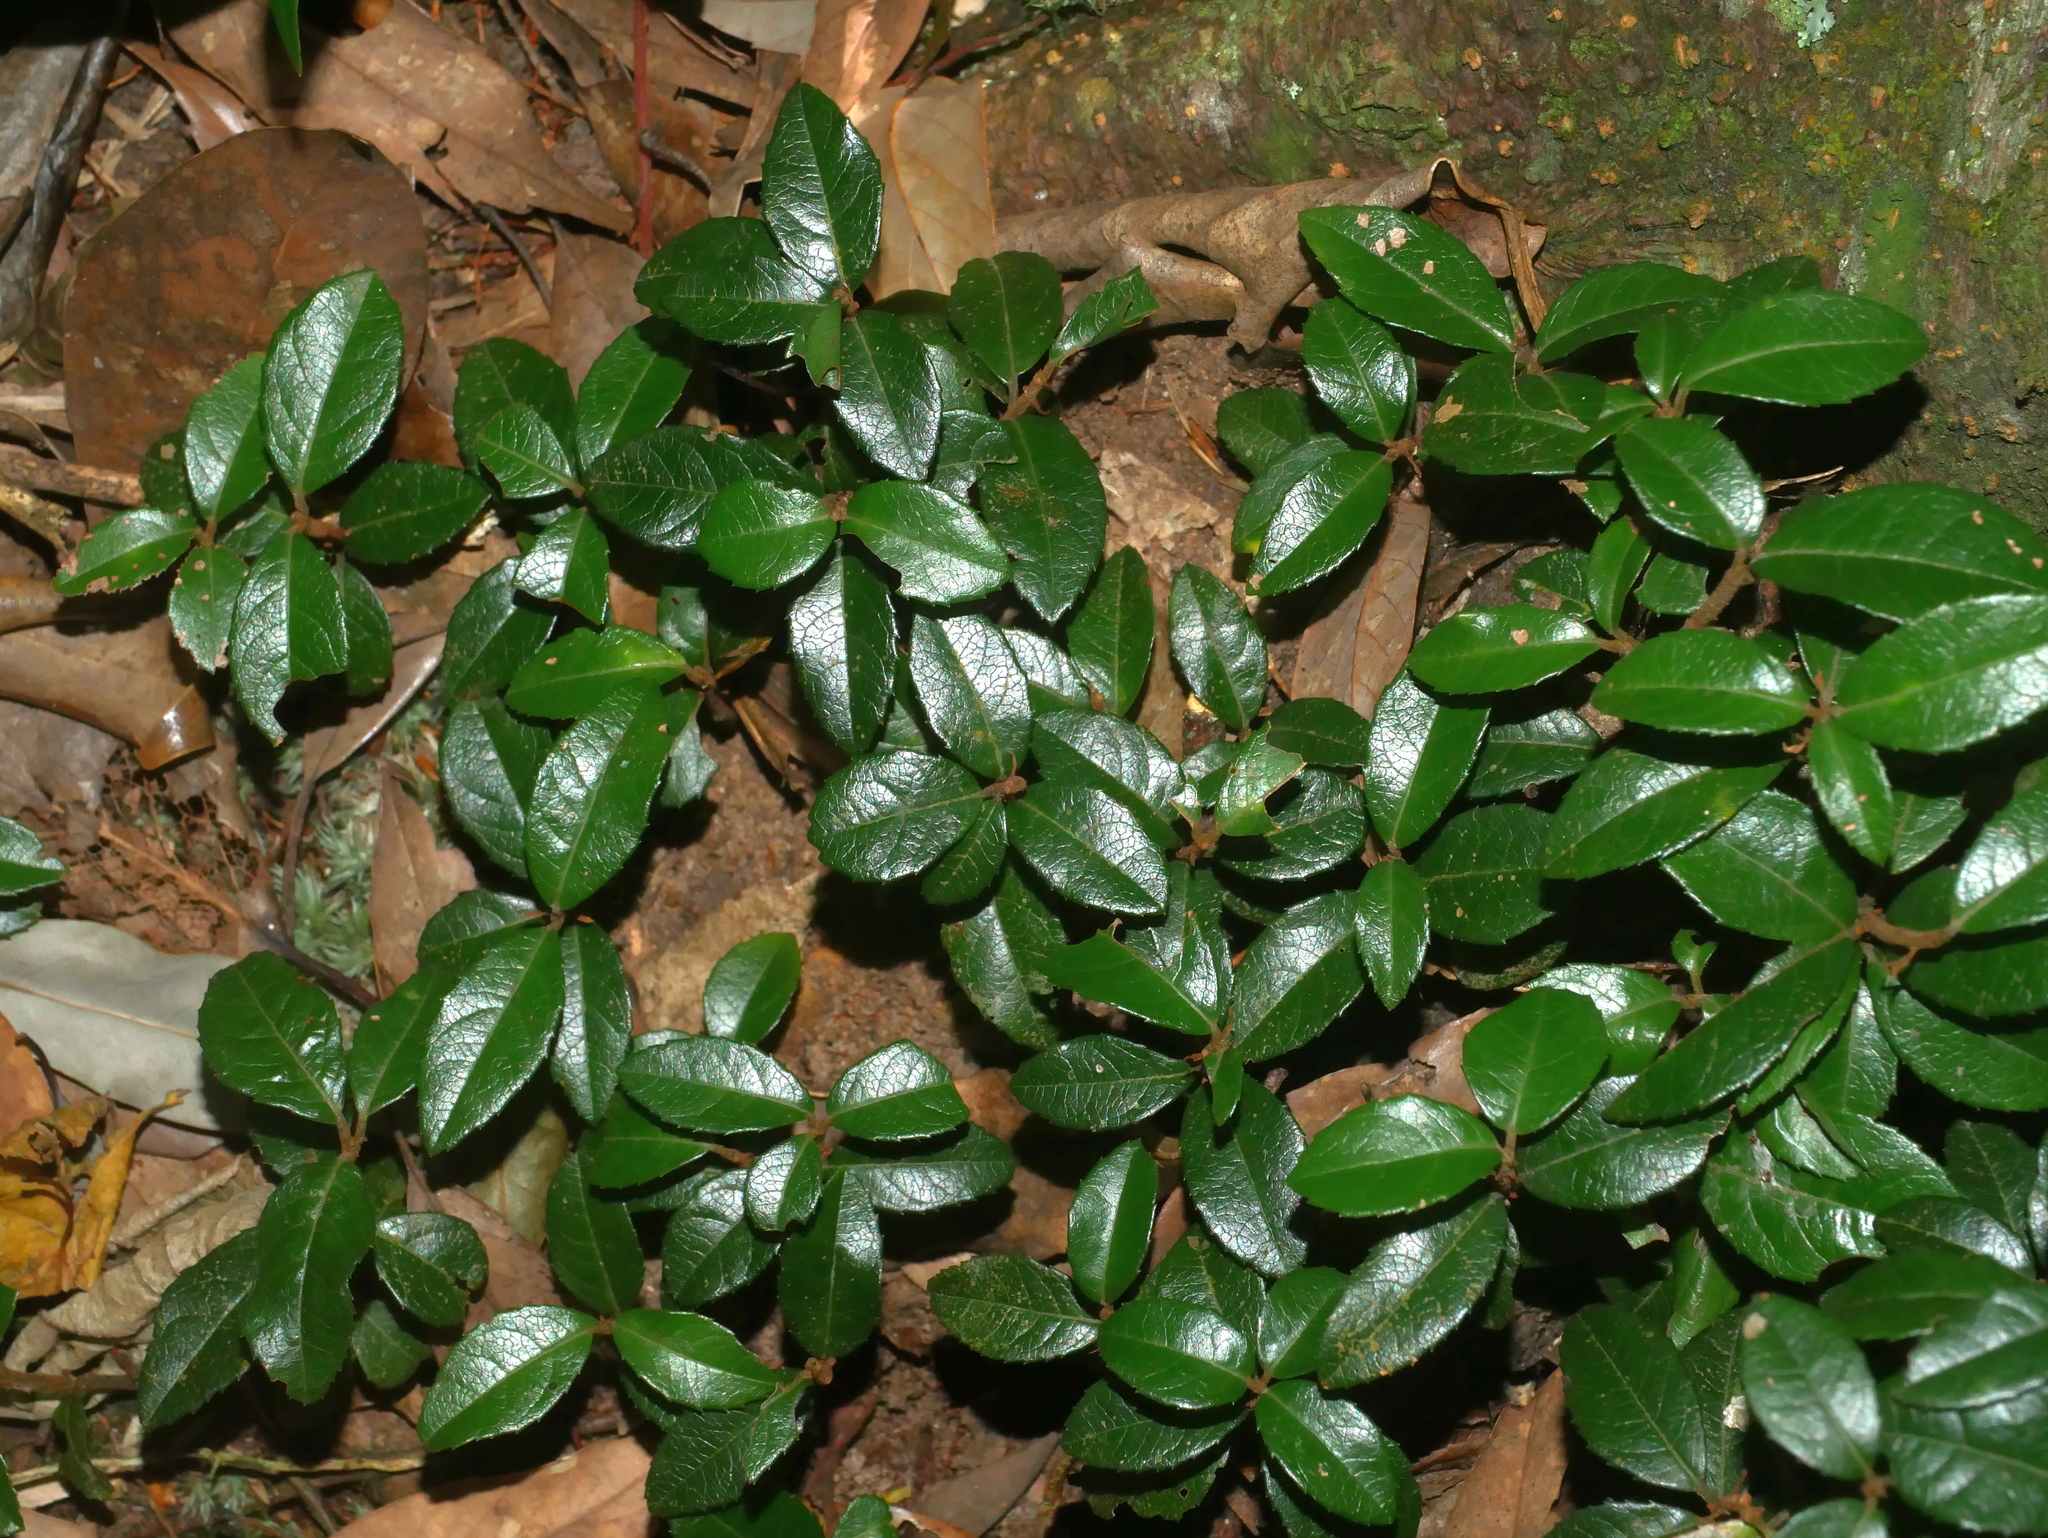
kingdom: Plantae
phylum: Tracheophyta
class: Magnoliopsida
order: Ericales
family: Primulaceae
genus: Ardisia
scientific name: Ardisia japonica
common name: Marlberry
